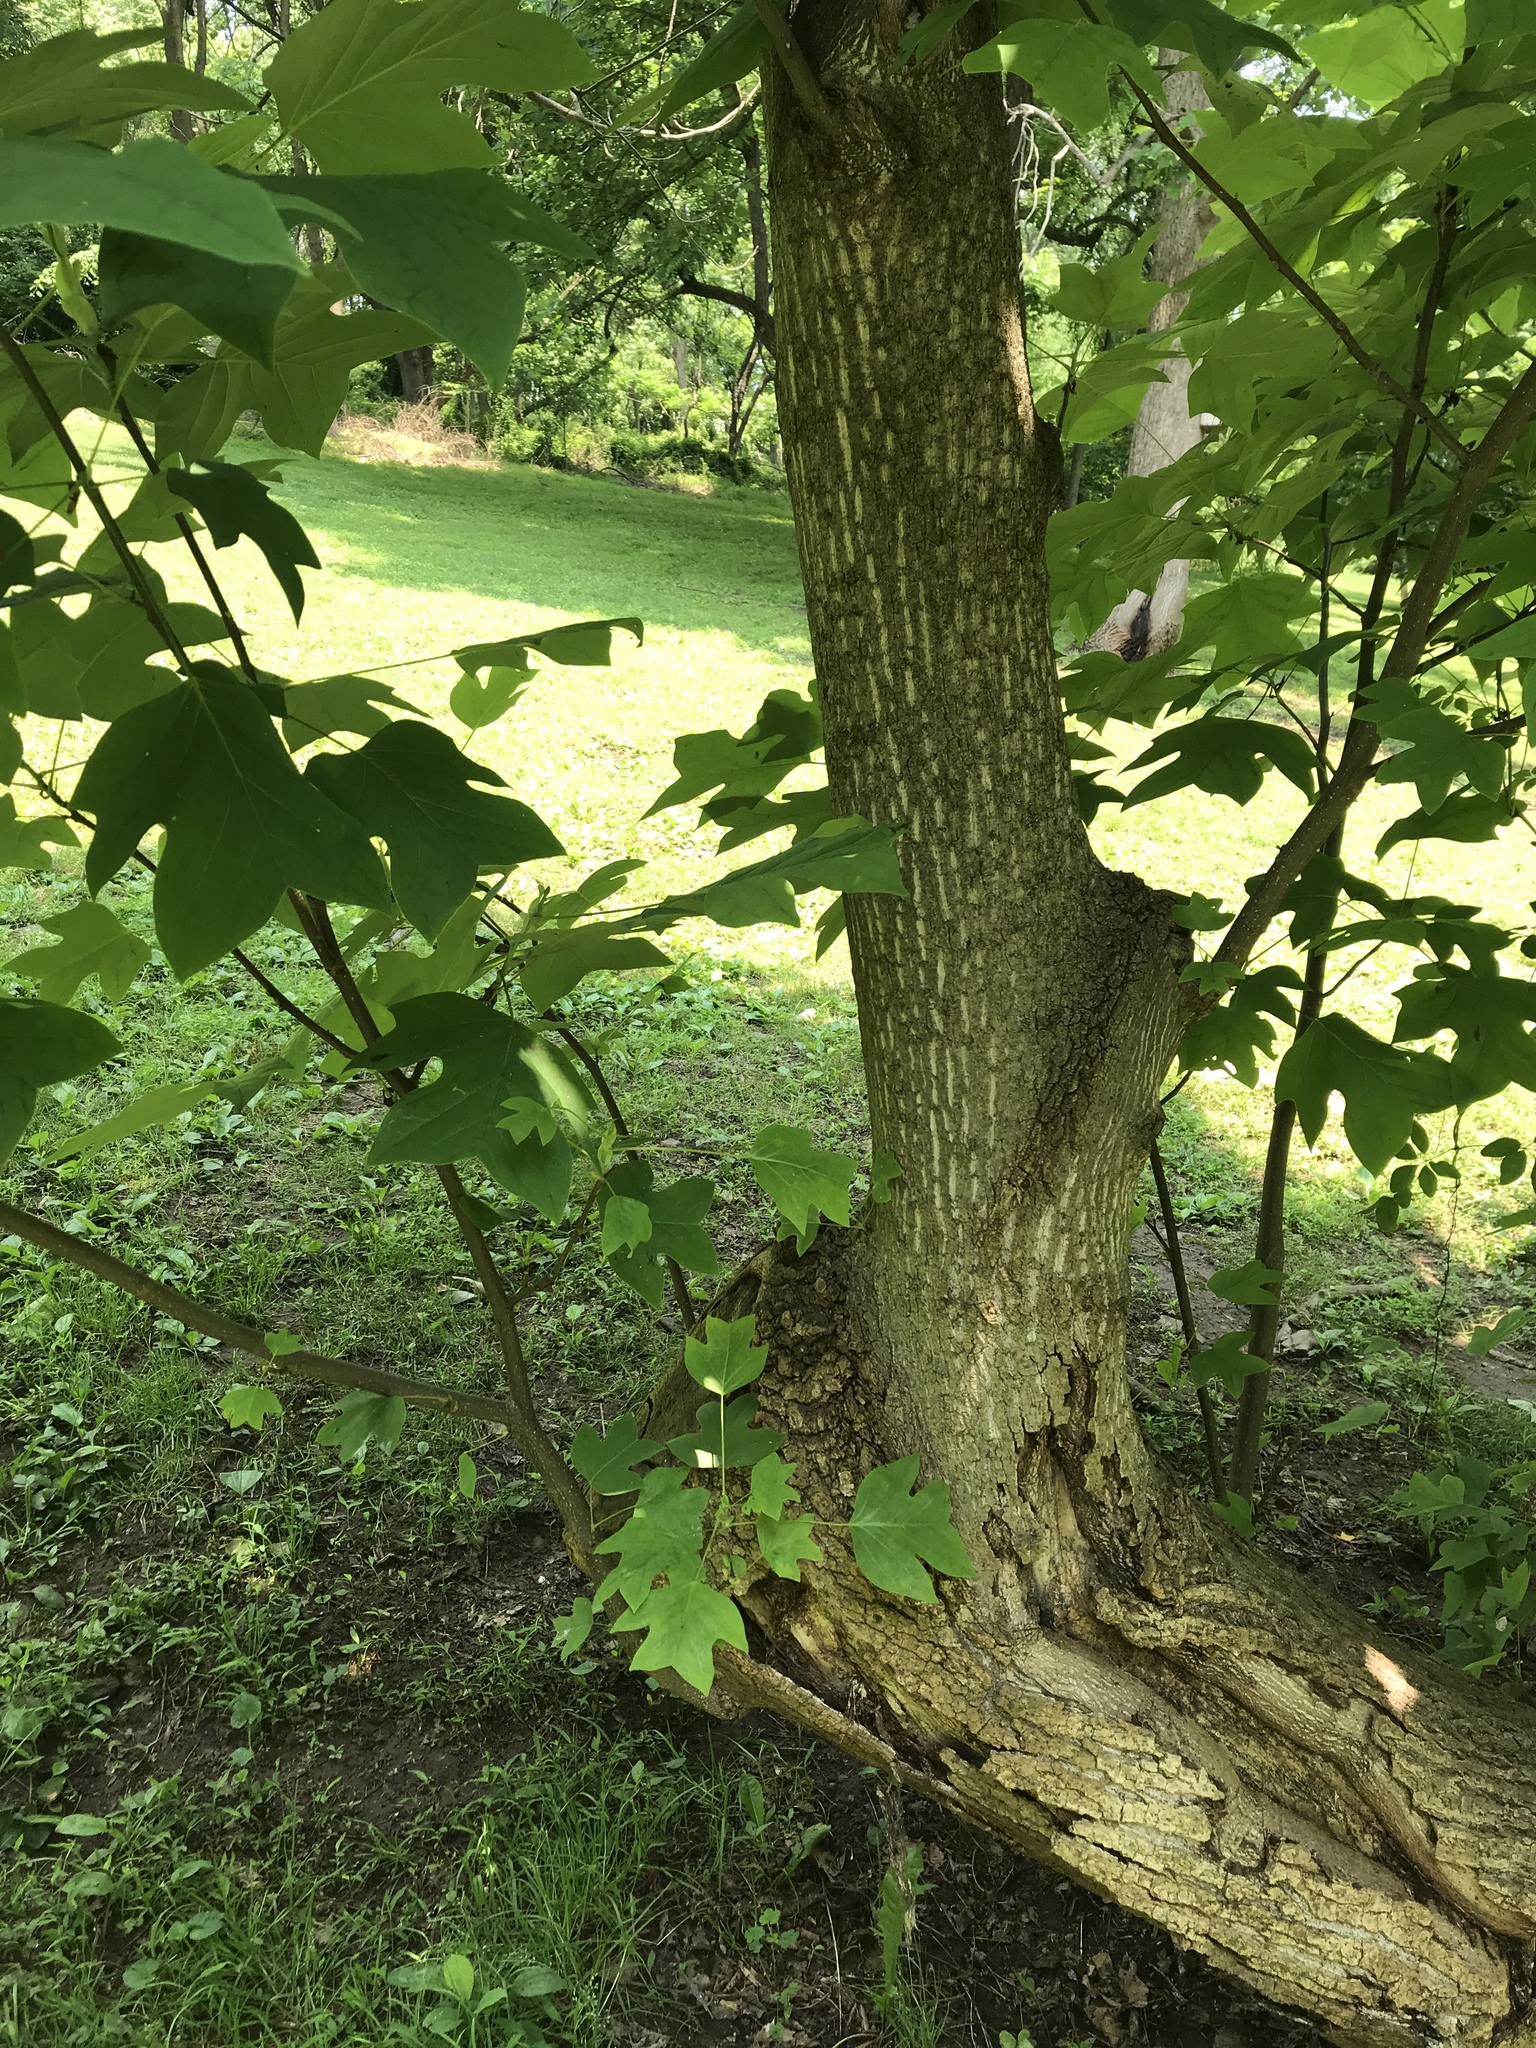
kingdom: Plantae
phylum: Tracheophyta
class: Magnoliopsida
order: Magnoliales
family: Magnoliaceae
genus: Liriodendron
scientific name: Liriodendron tulipifera
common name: Tulip tree
